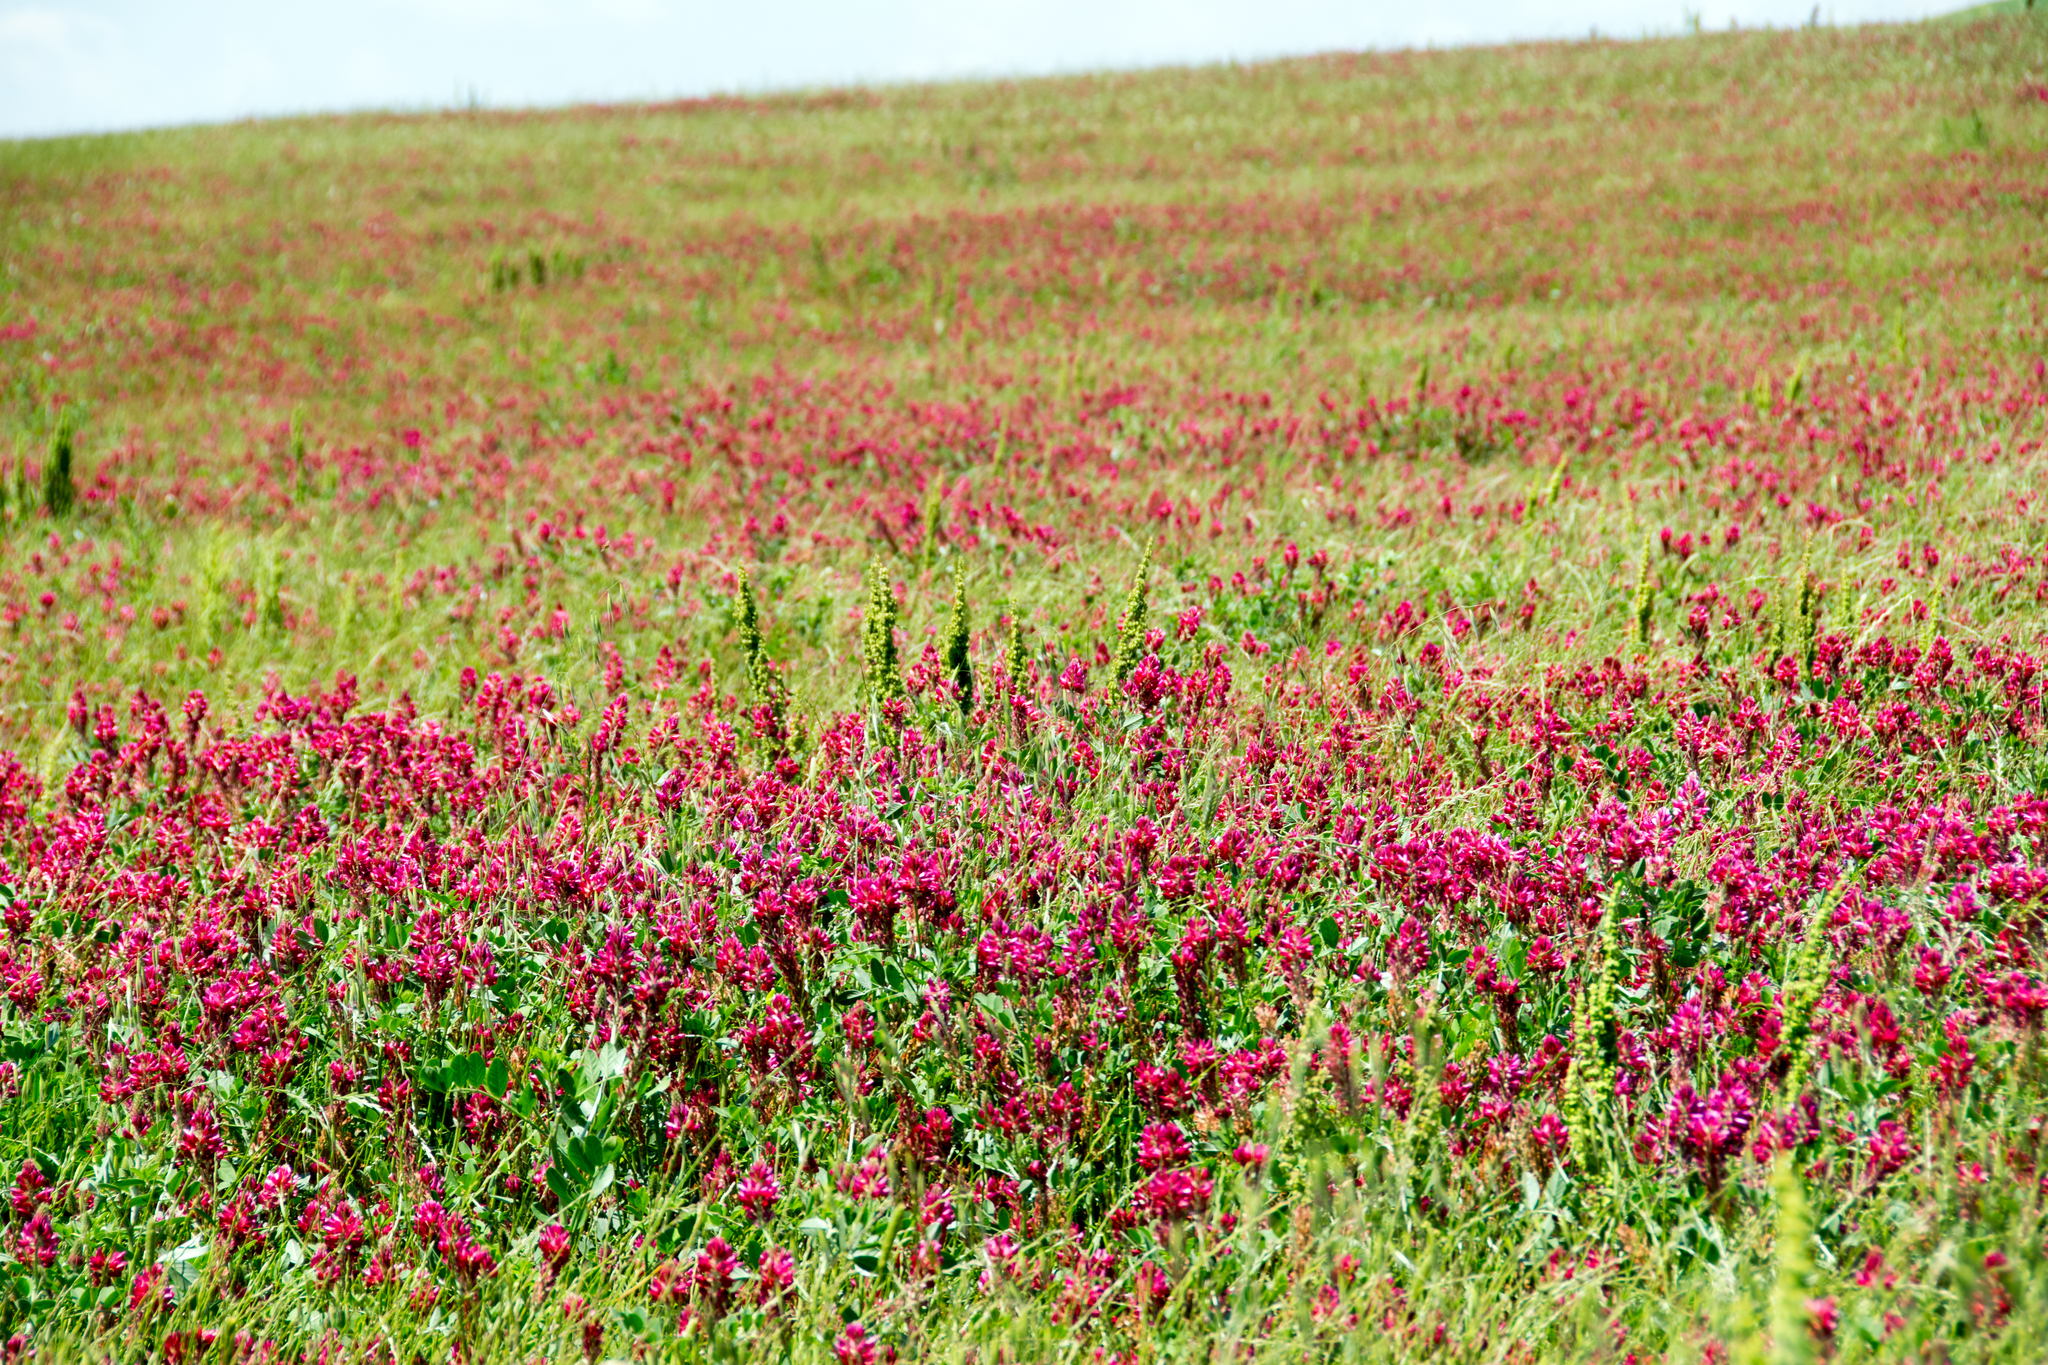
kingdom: Plantae
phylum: Tracheophyta
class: Magnoliopsida
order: Fabales
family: Fabaceae
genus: Sulla
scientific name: Sulla coronaria
